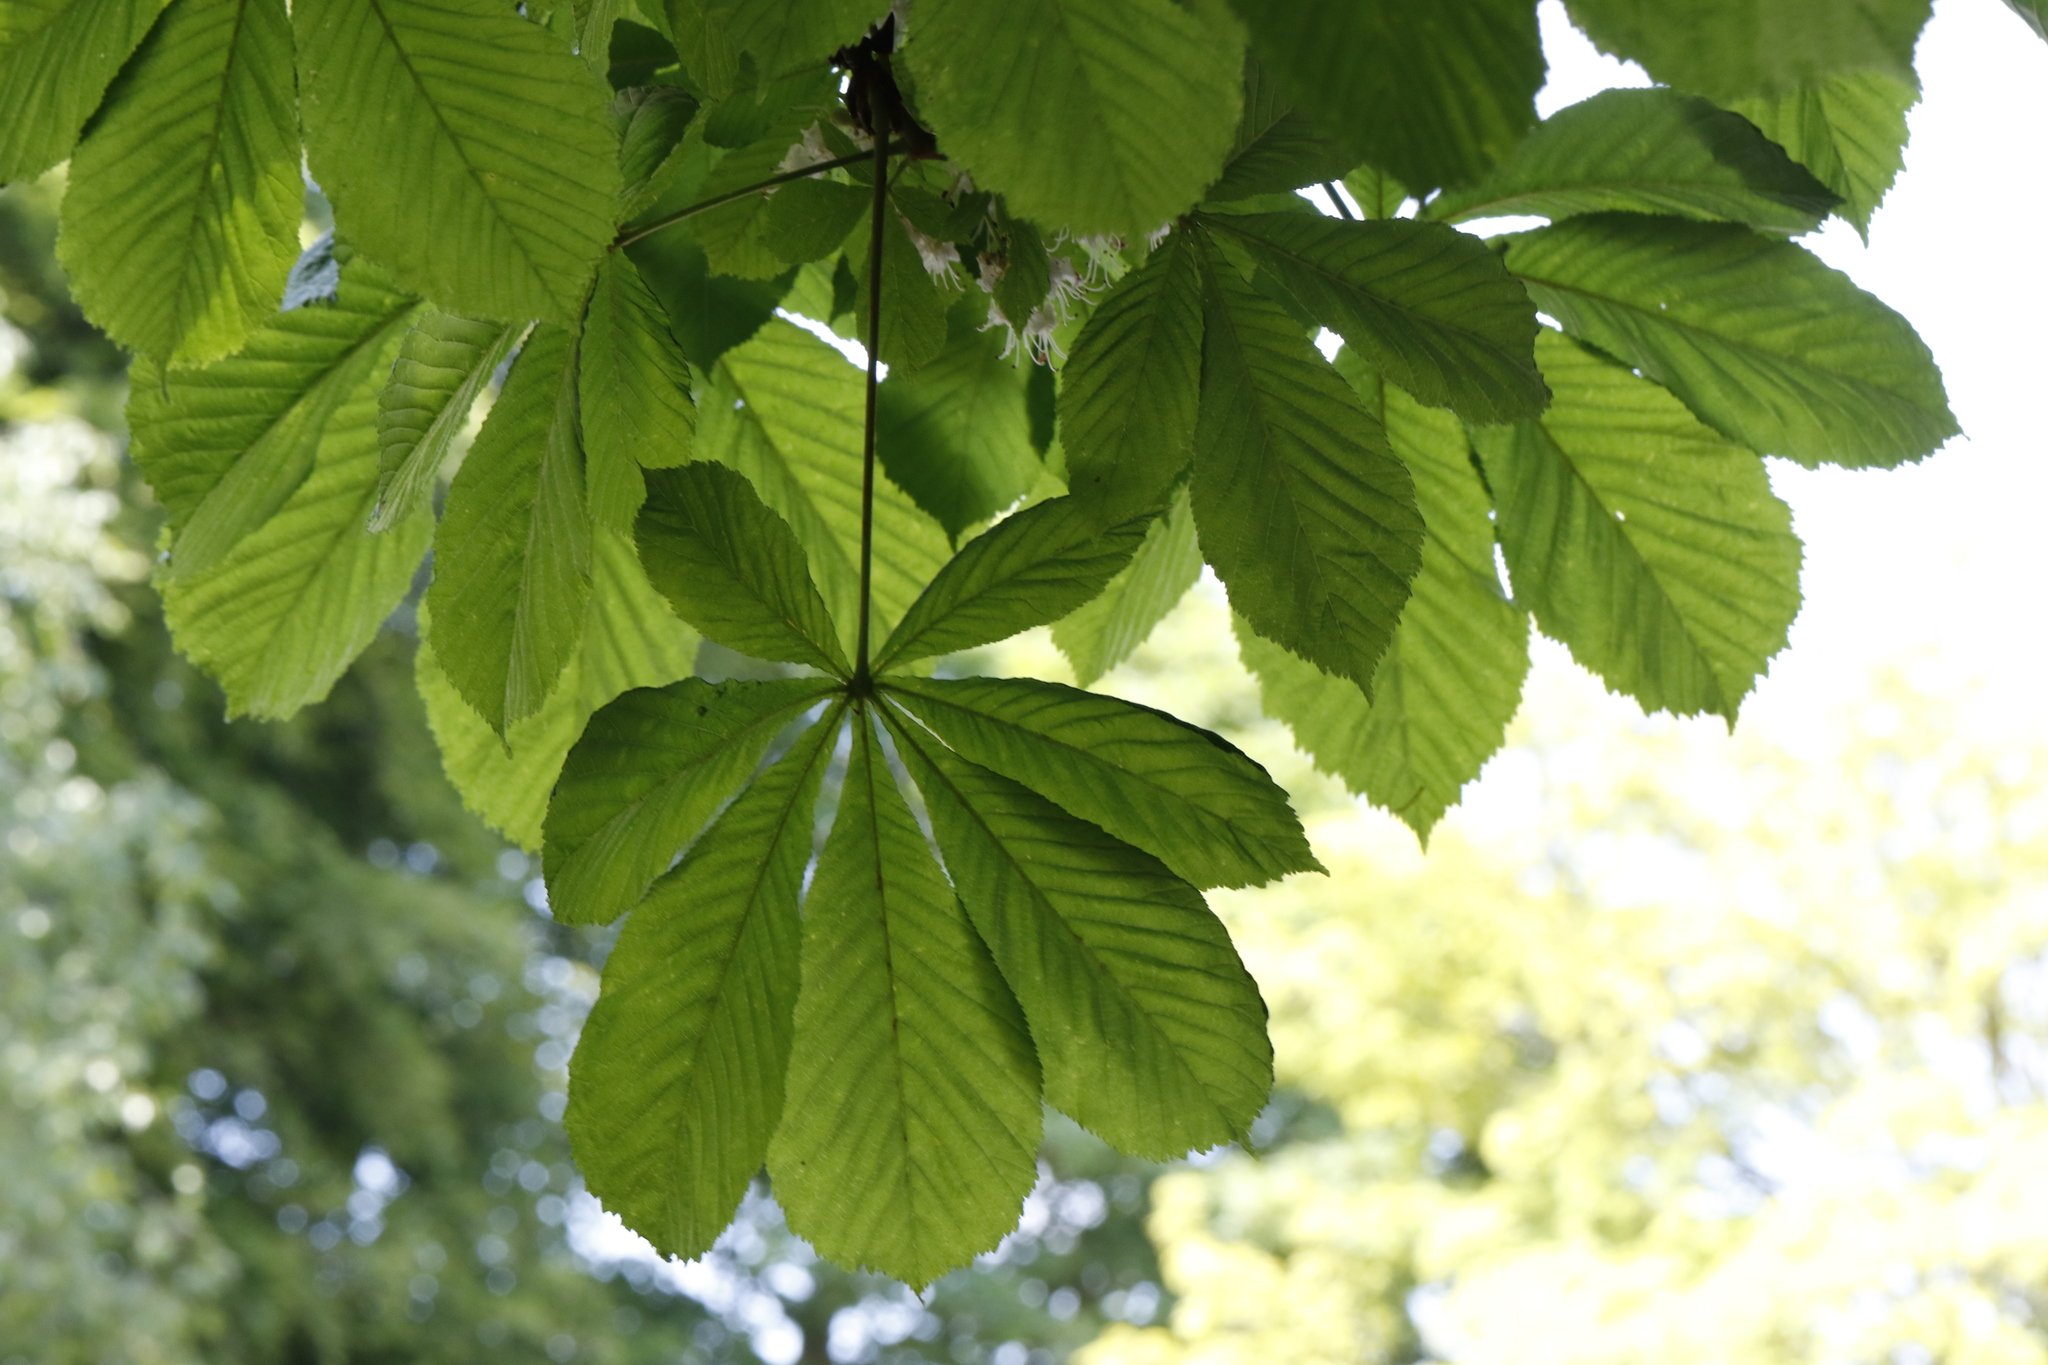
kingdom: Plantae
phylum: Tracheophyta
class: Magnoliopsida
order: Sapindales
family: Sapindaceae
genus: Aesculus
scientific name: Aesculus hippocastanum
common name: Horse-chestnut
